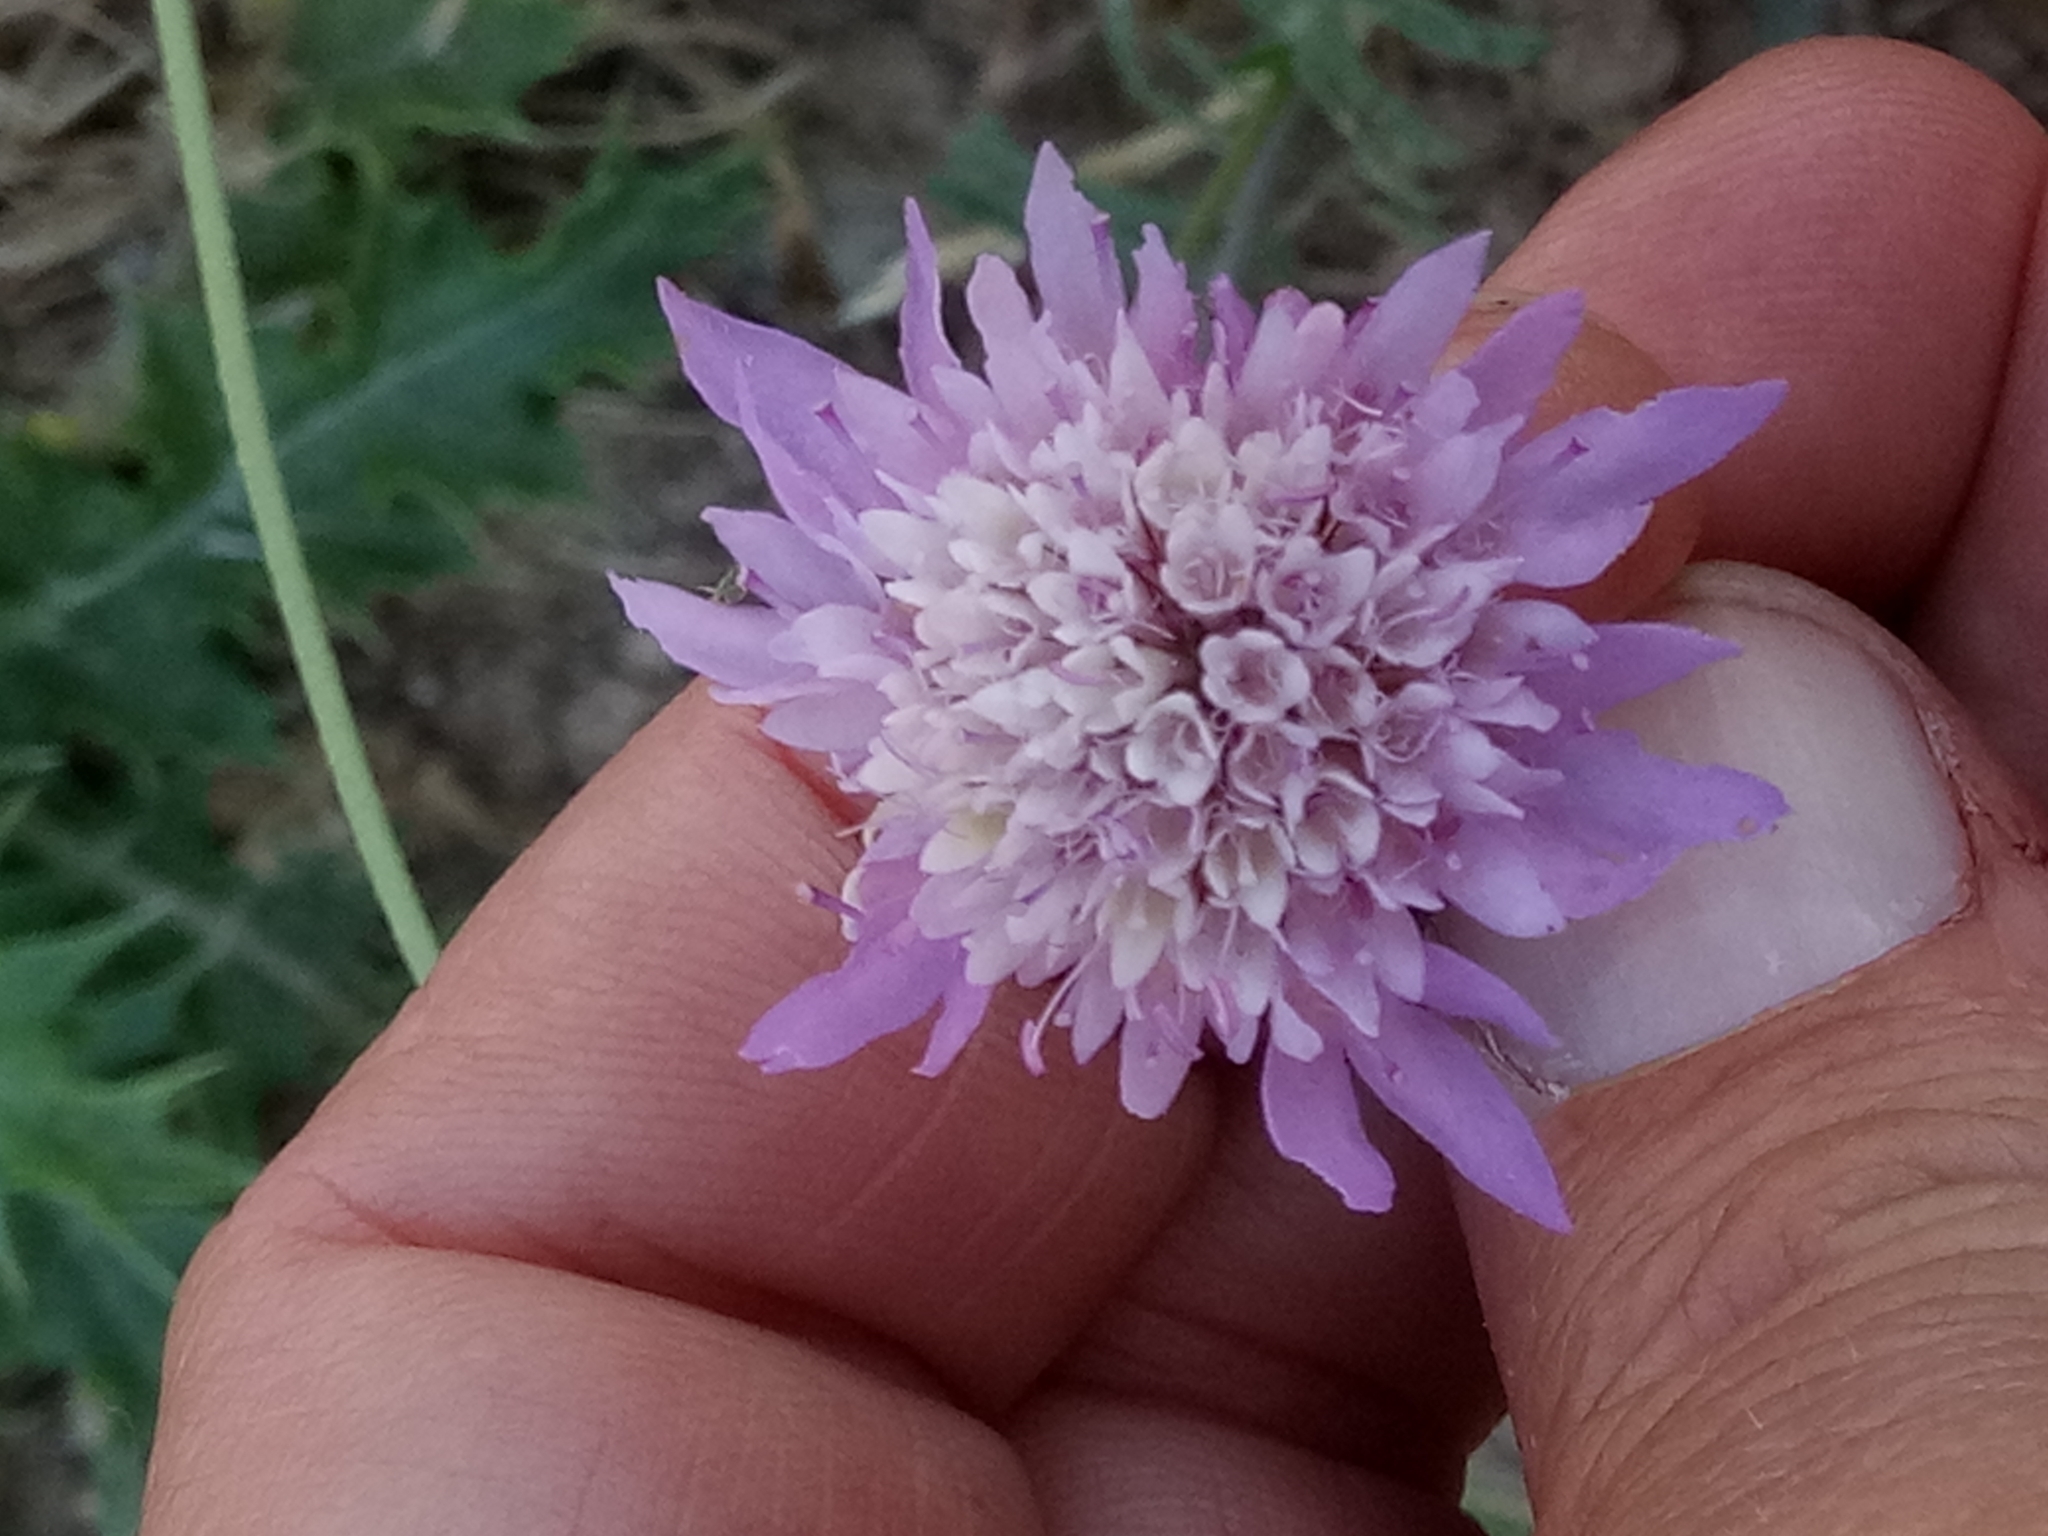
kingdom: Plantae
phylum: Tracheophyta
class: Magnoliopsida
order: Dipsacales
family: Caprifoliaceae
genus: Sixalix
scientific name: Sixalix maritima
